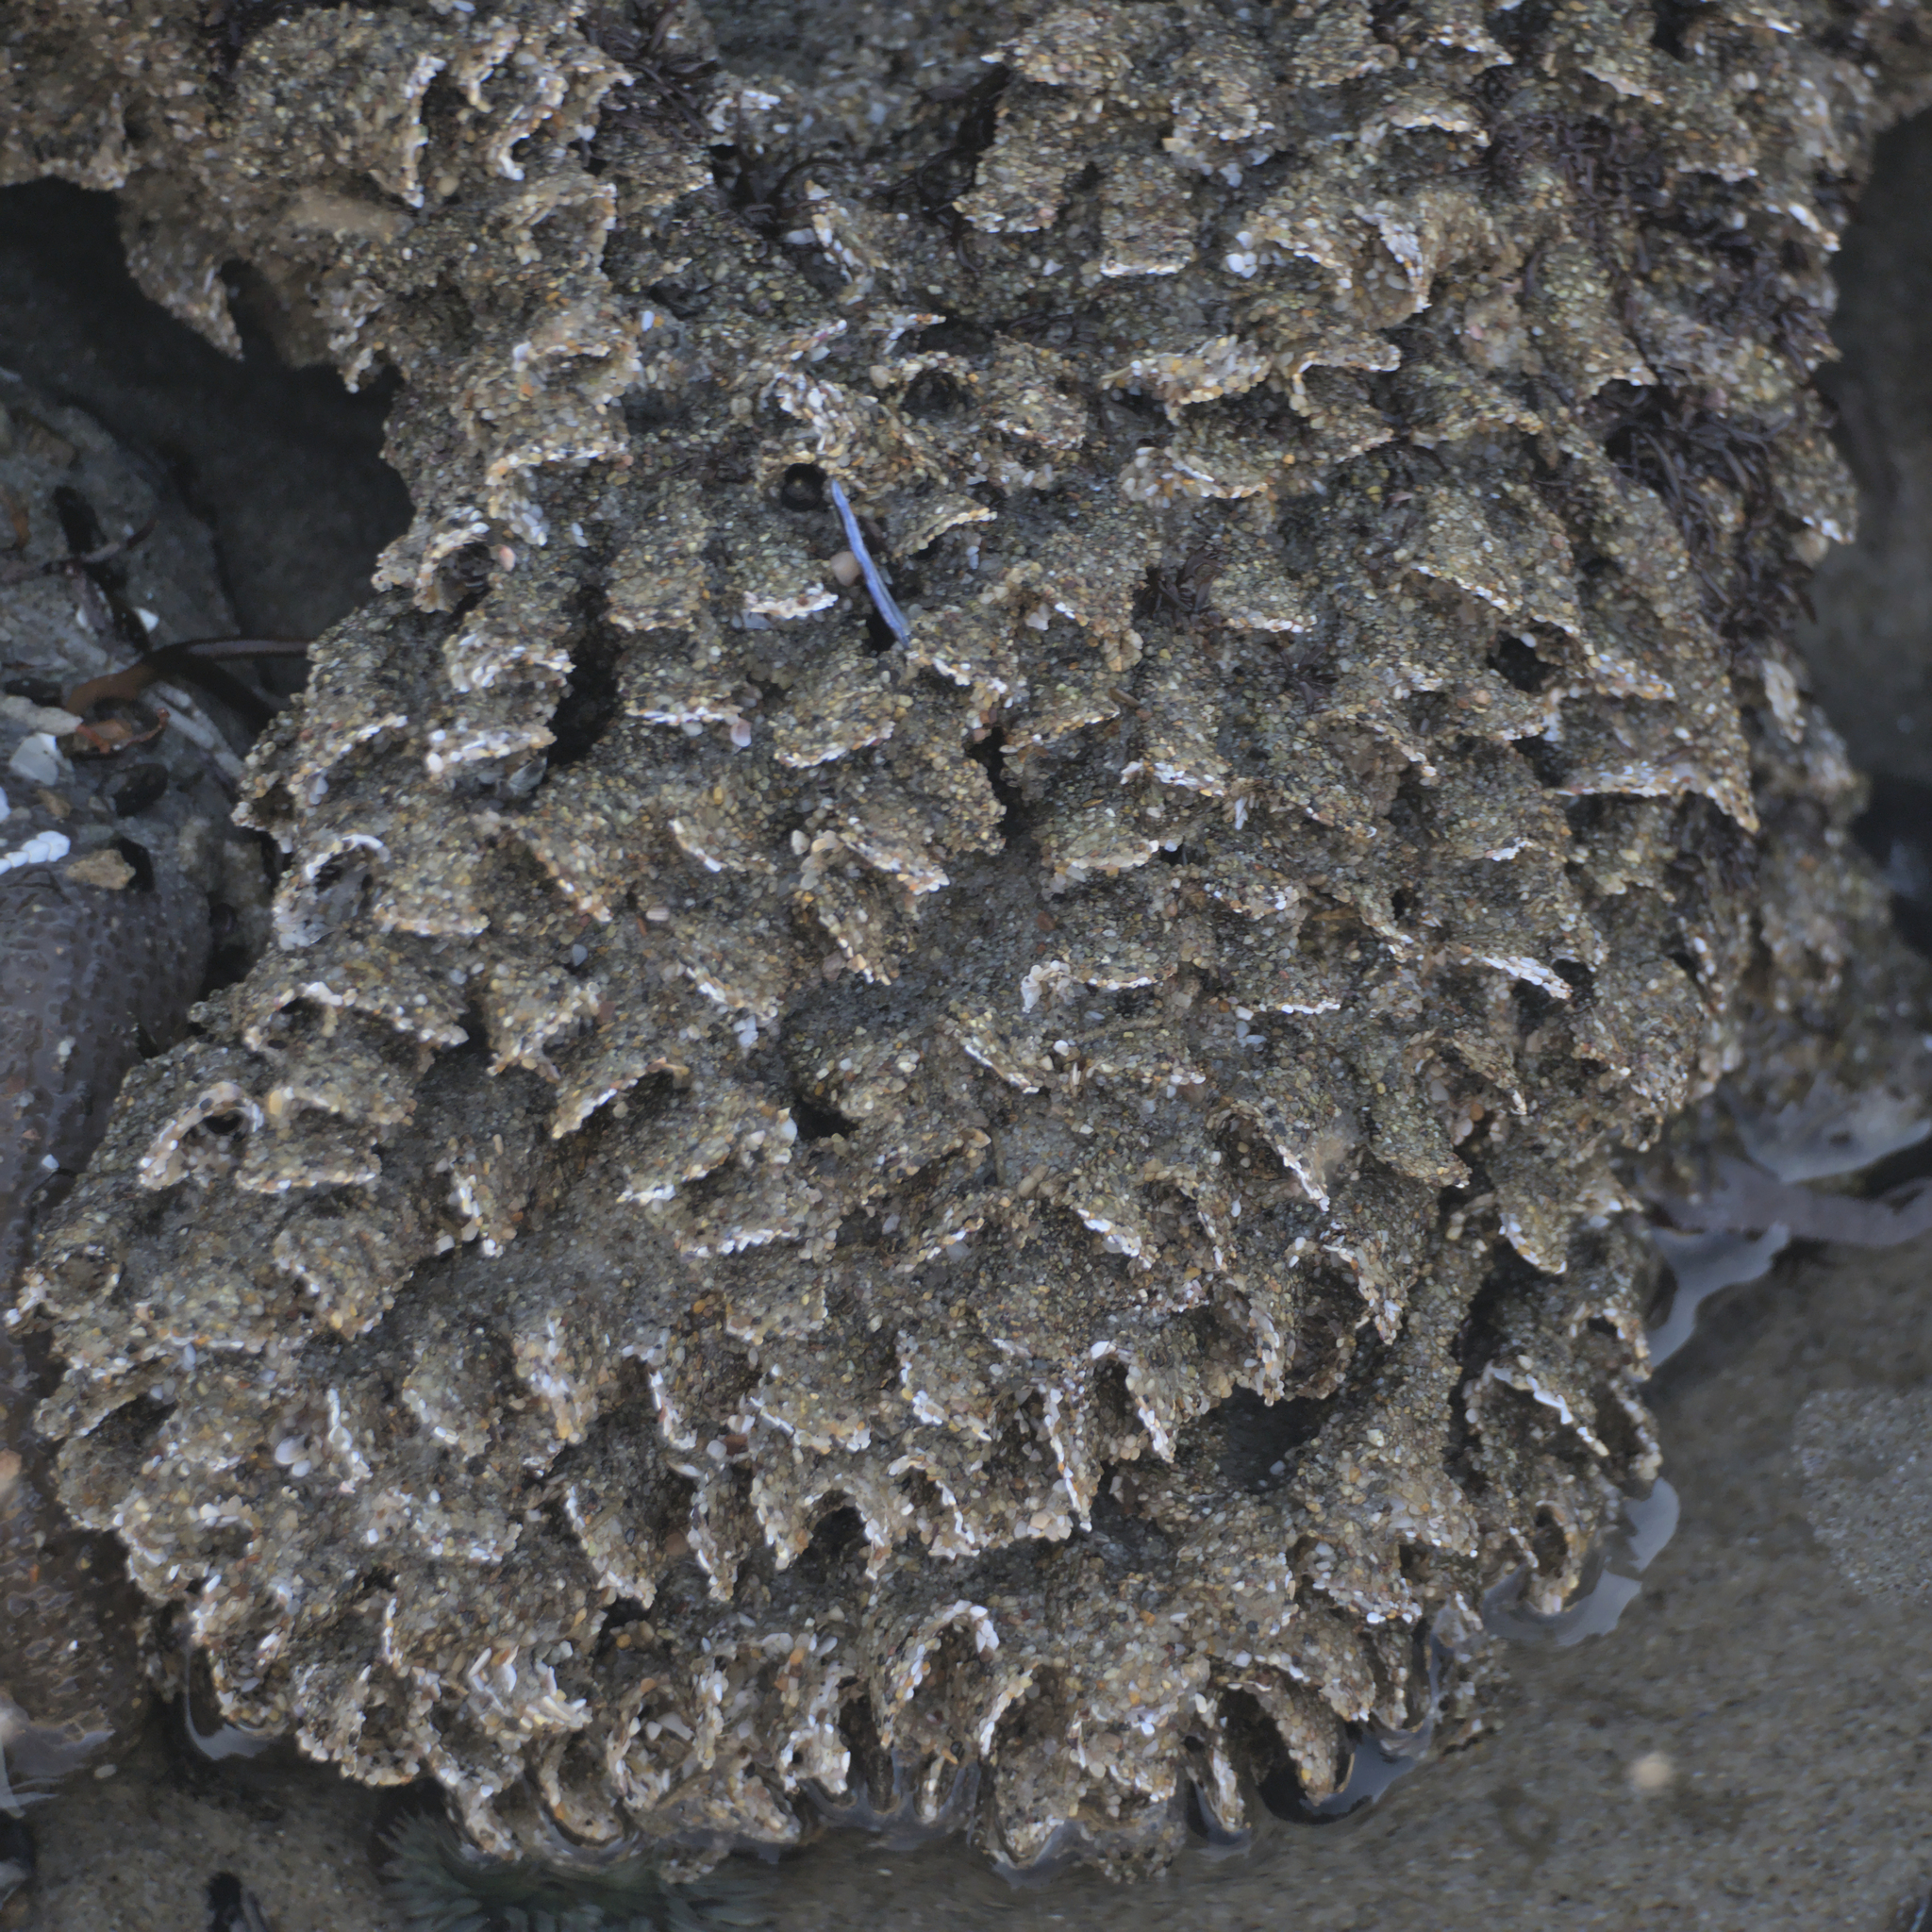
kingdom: Animalia
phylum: Annelida
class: Polychaeta
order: Sabellida
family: Sabellariidae
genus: Phragmatopoma
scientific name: Phragmatopoma californica
